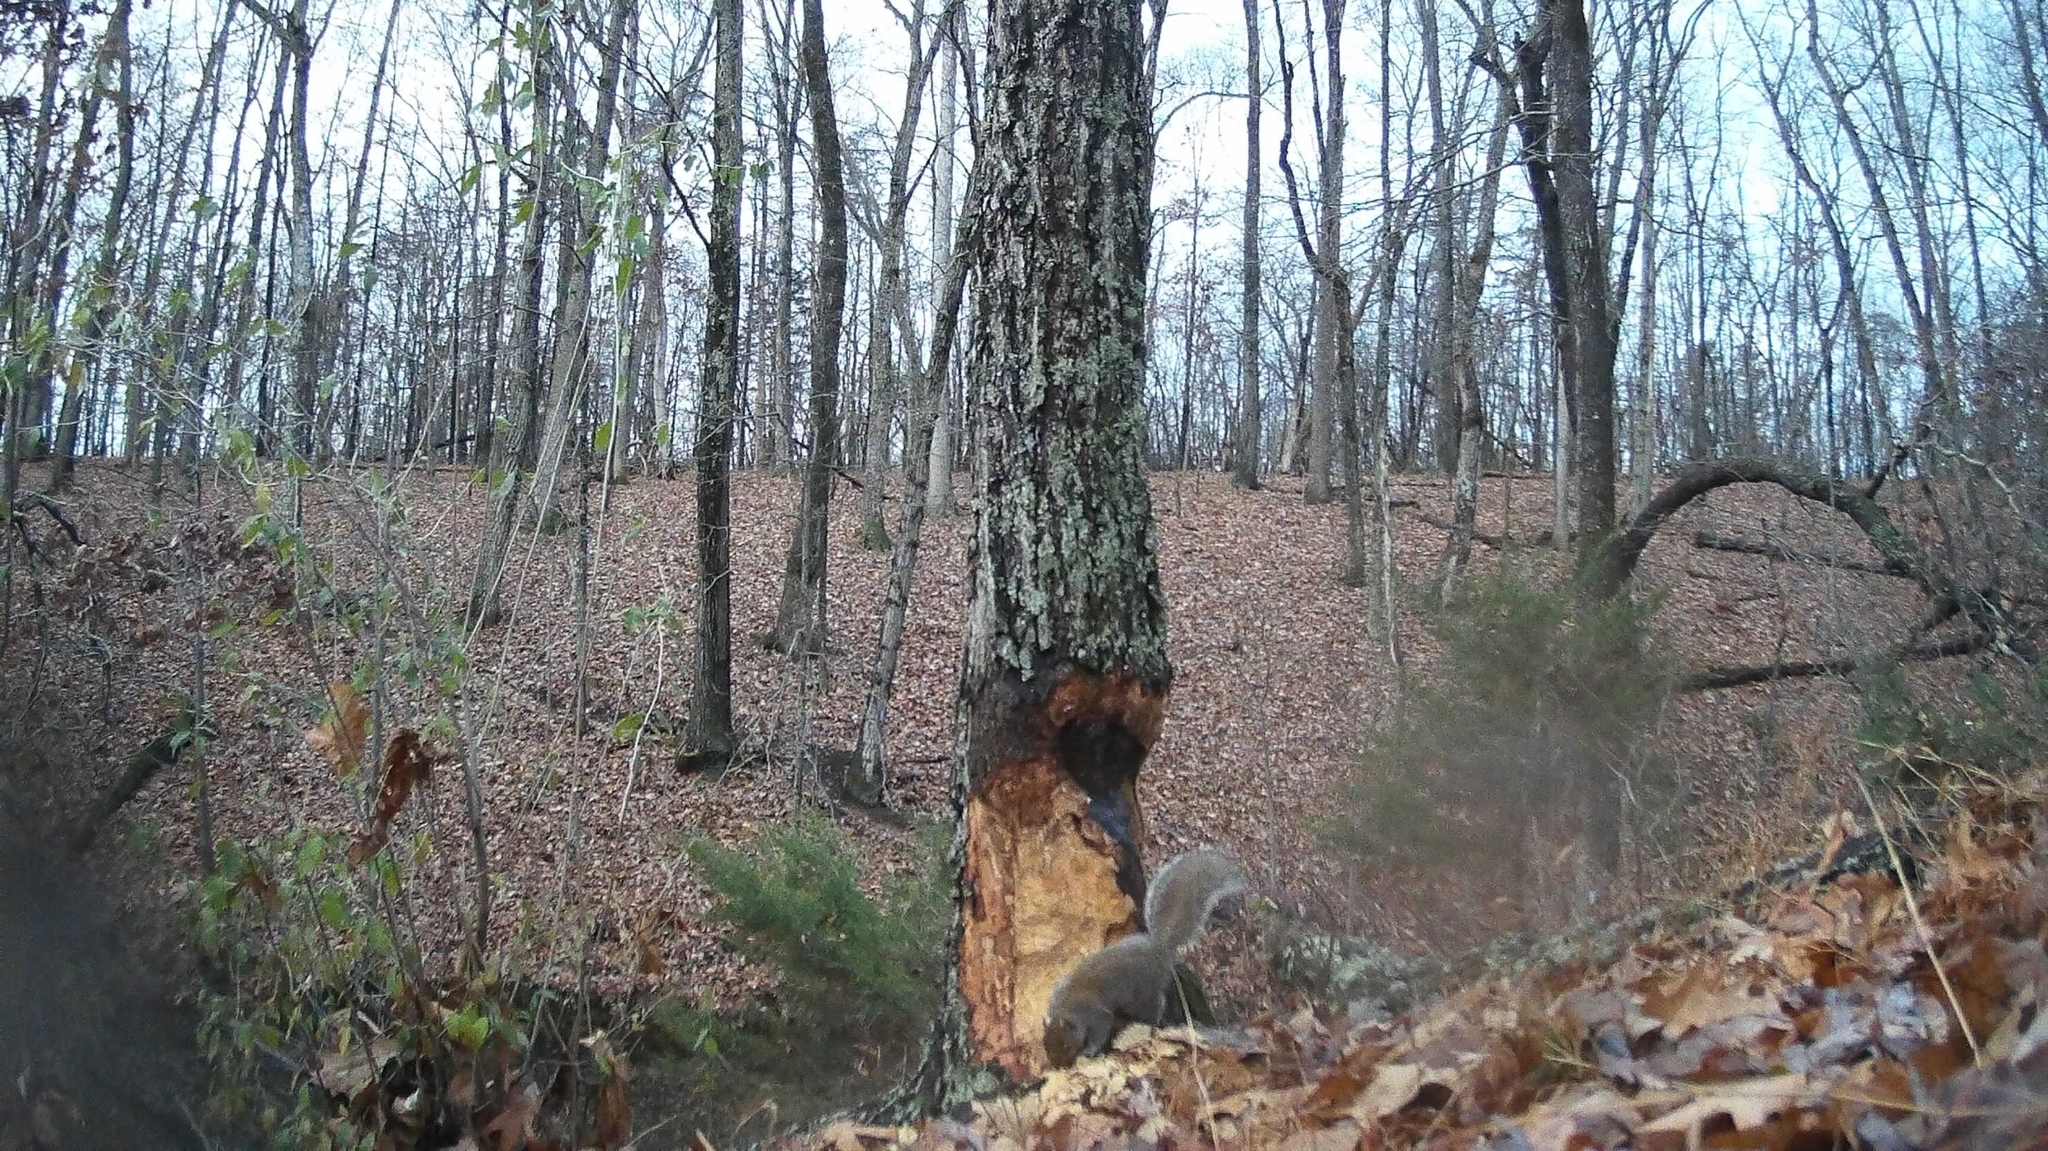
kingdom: Animalia
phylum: Chordata
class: Mammalia
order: Rodentia
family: Sciuridae
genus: Sciurus
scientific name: Sciurus carolinensis
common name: Eastern gray squirrel
